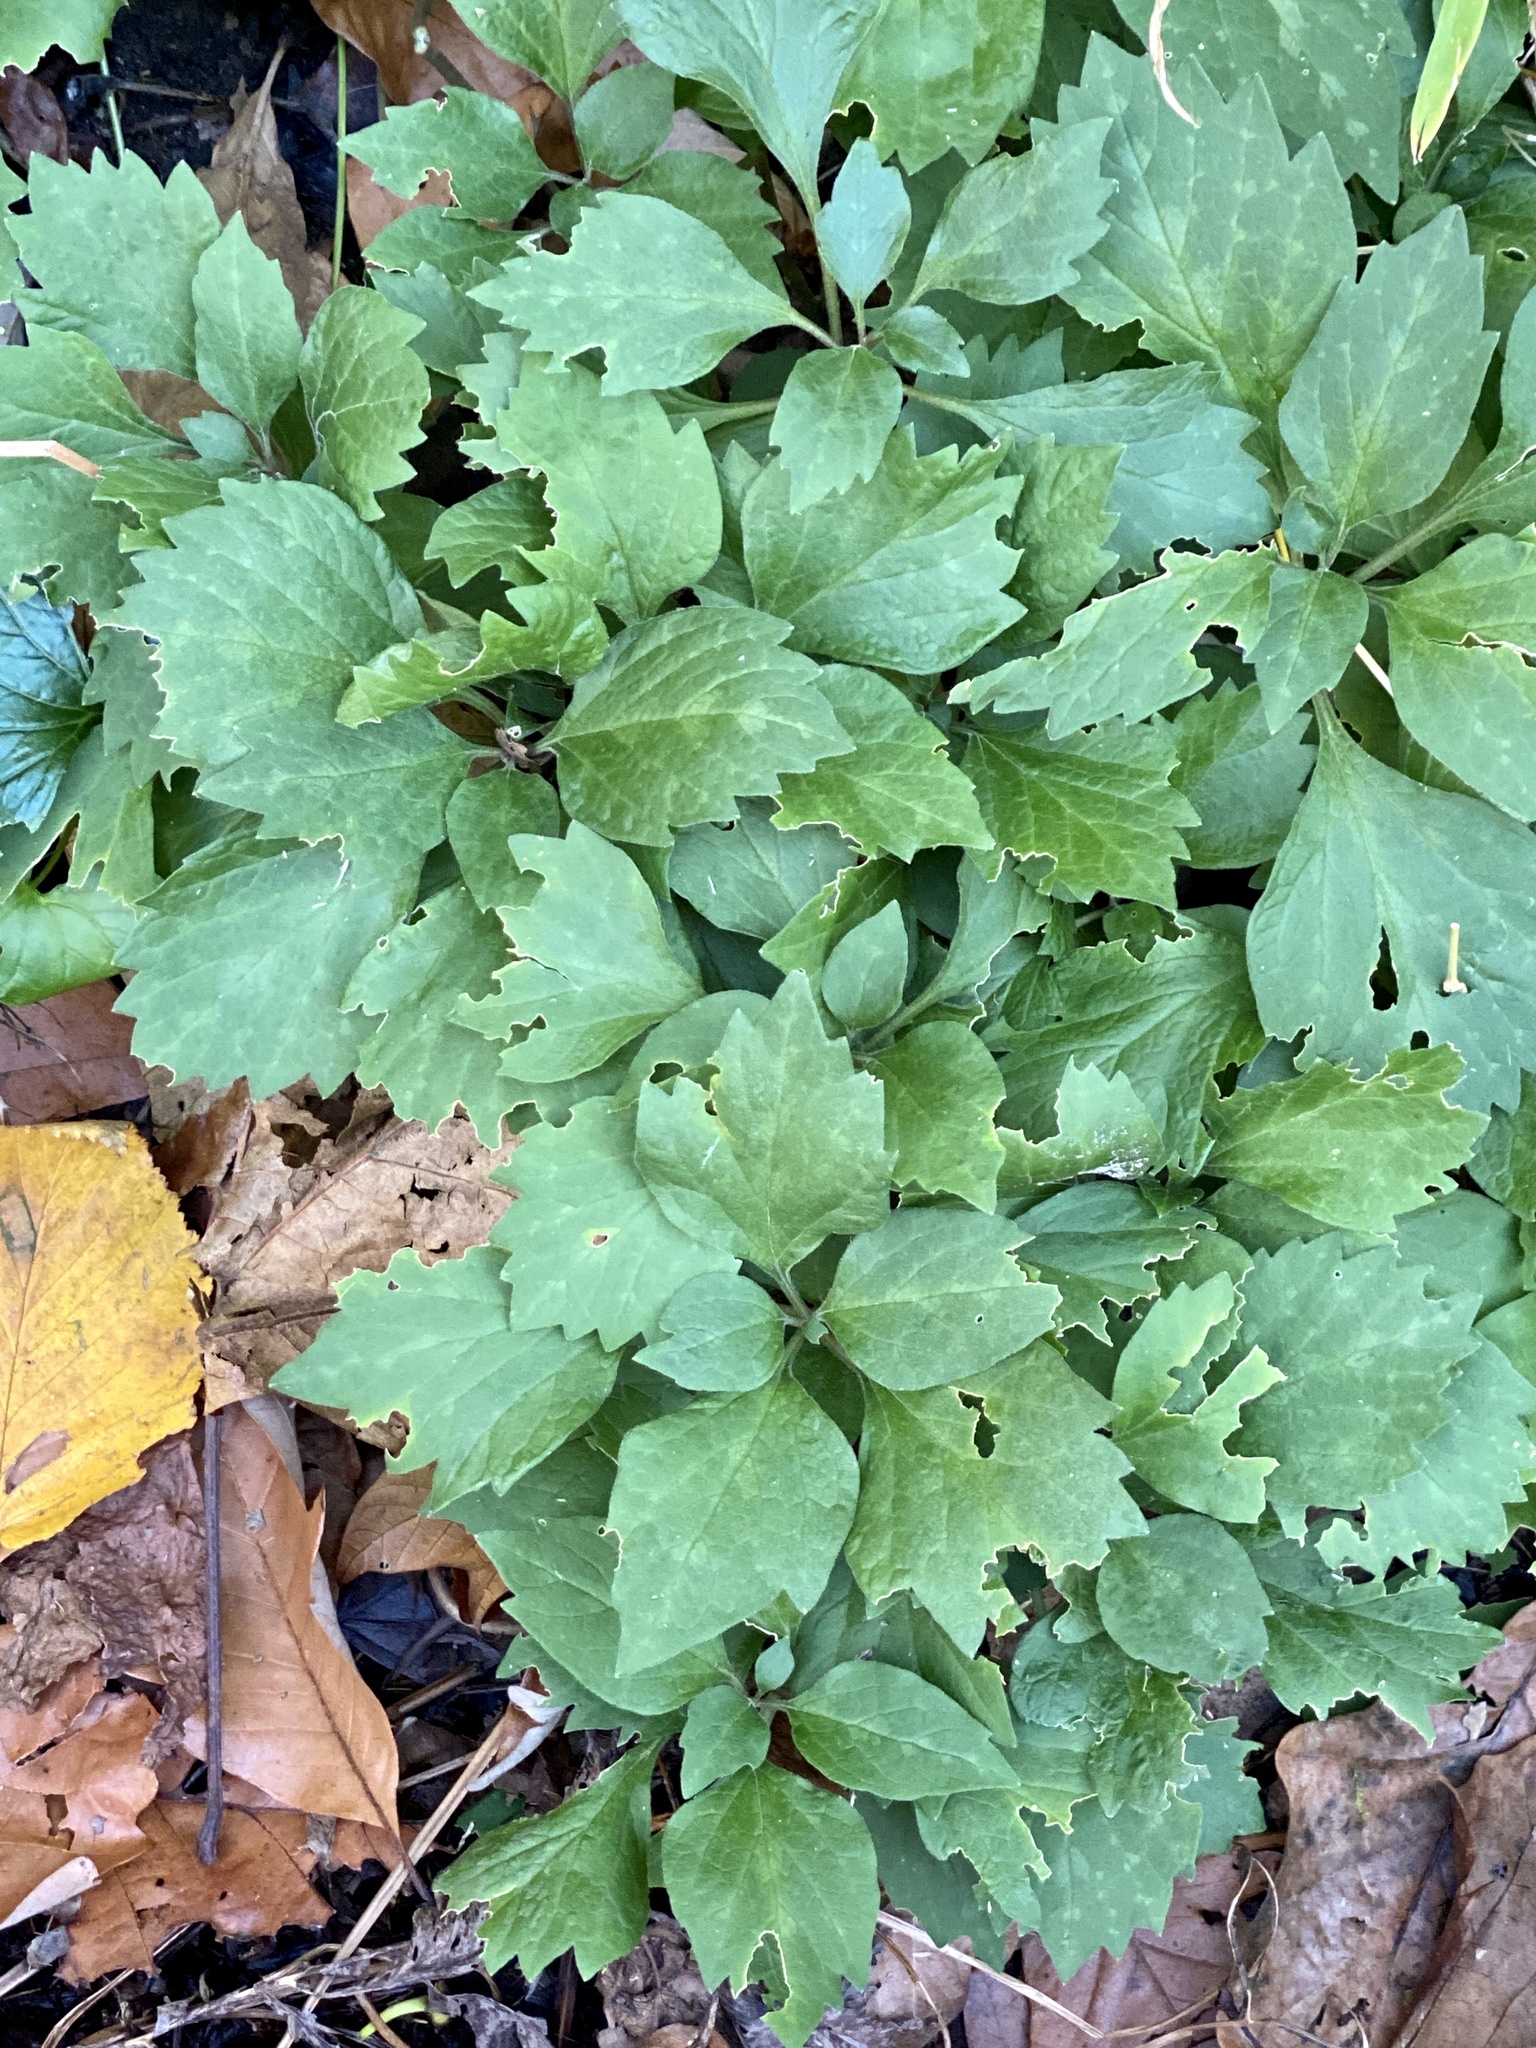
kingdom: Plantae
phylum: Tracheophyta
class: Magnoliopsida
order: Buxales
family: Buxaceae
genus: Pachysandra
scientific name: Pachysandra procumbens
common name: Mountain-spurge
